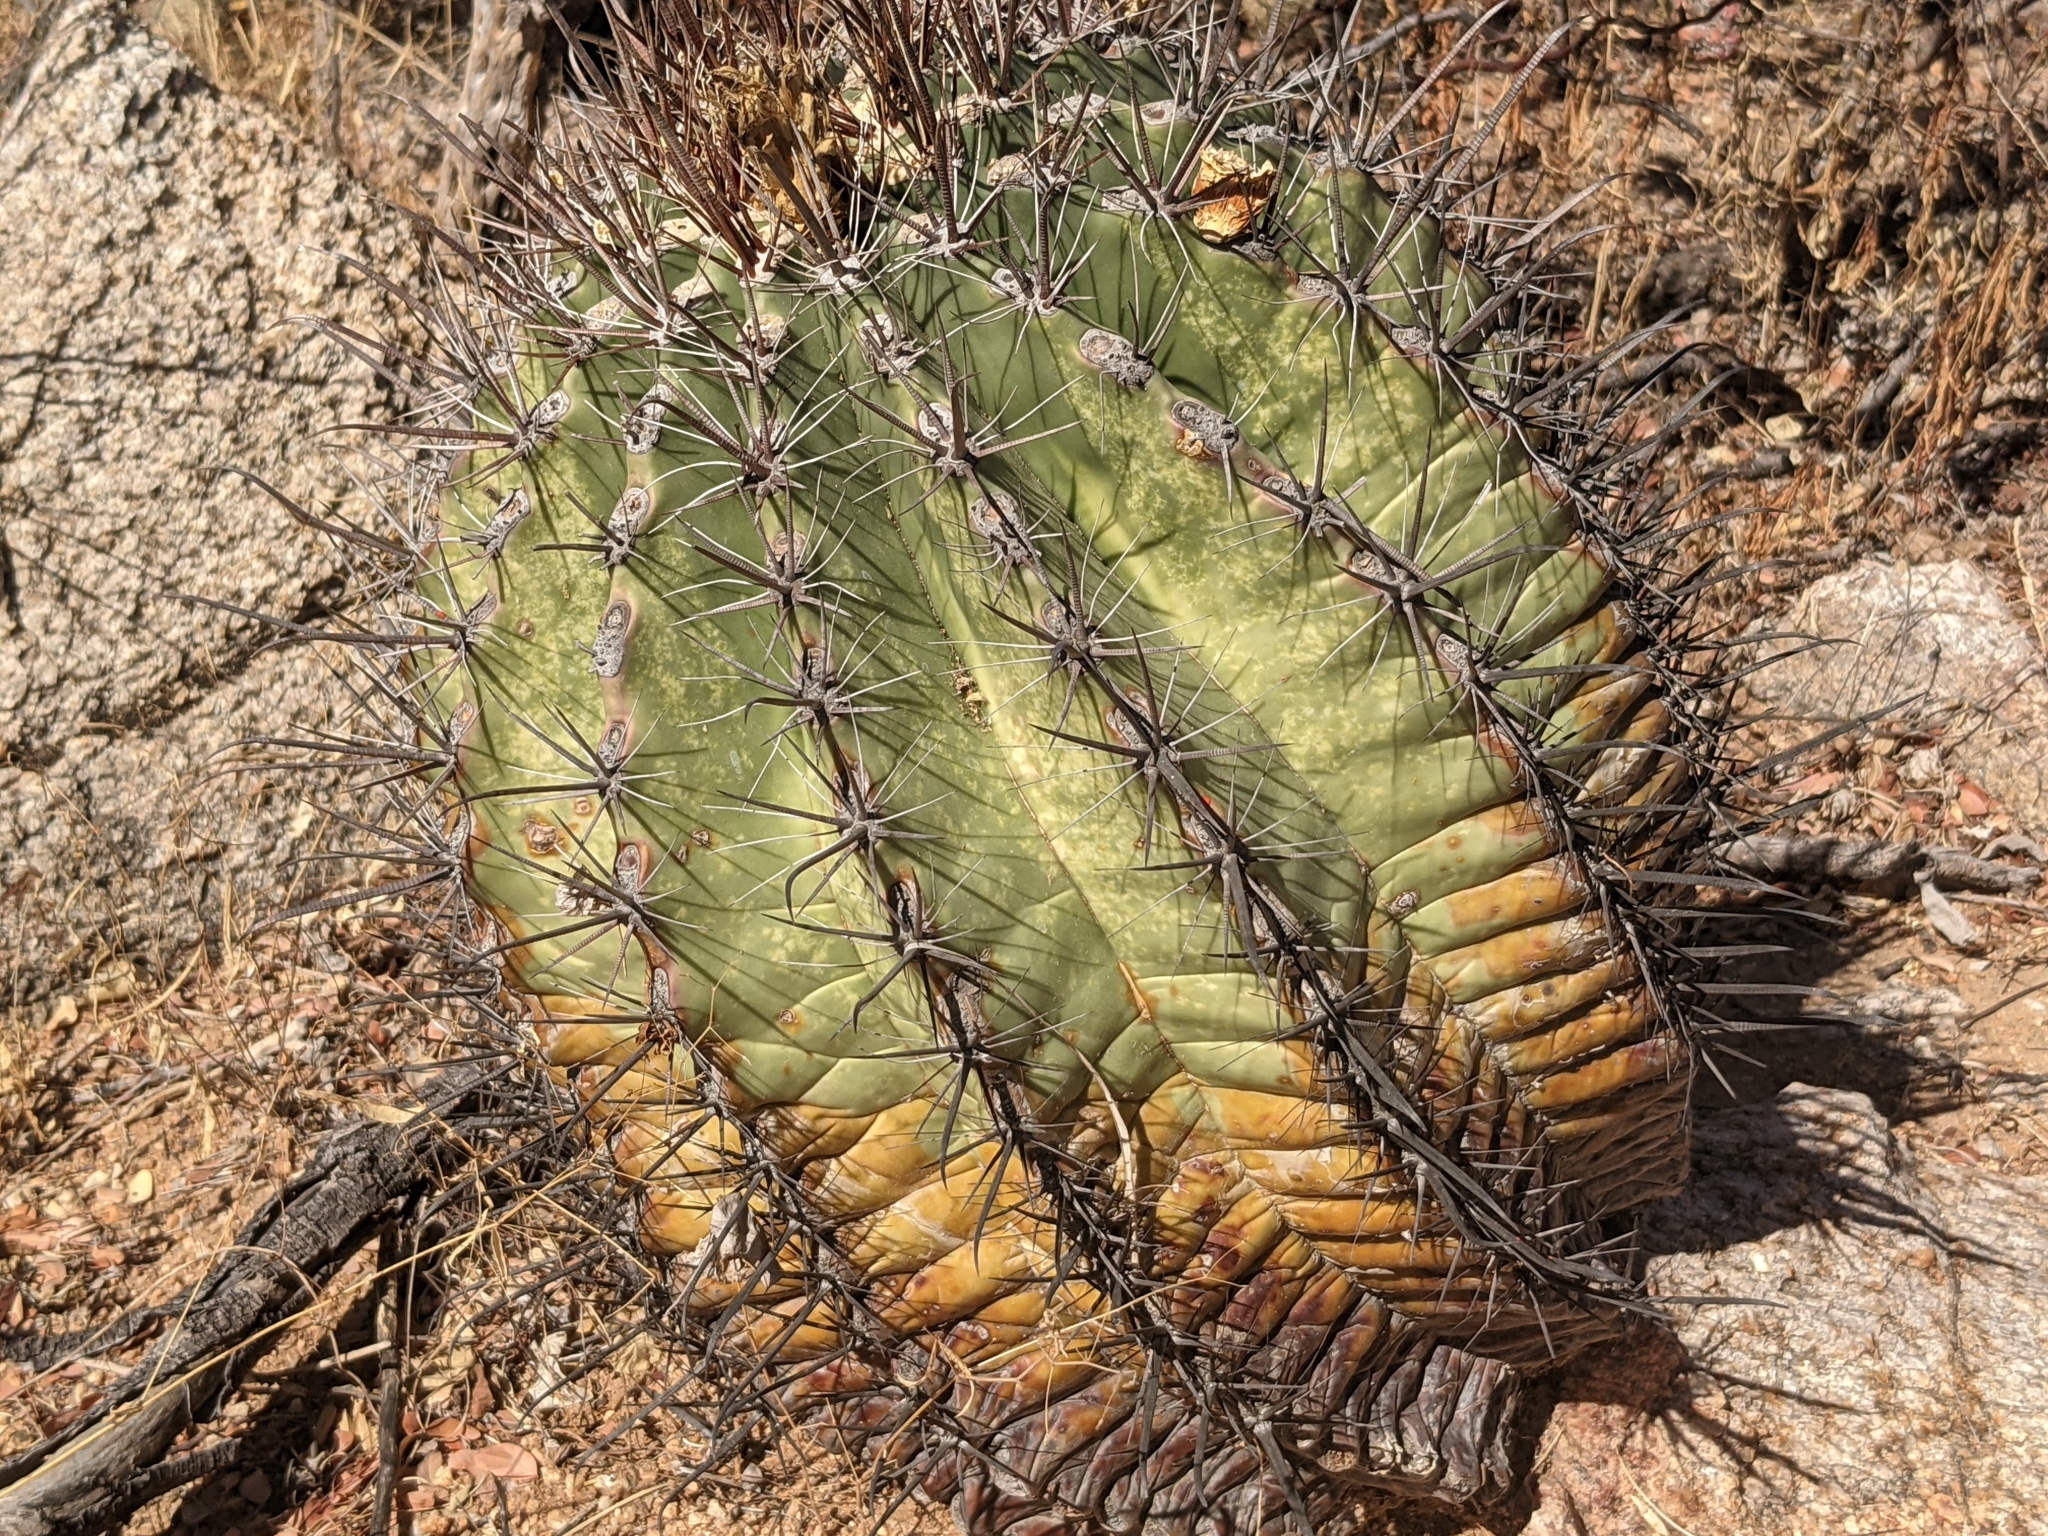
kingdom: Plantae
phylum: Tracheophyta
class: Magnoliopsida
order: Caryophyllales
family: Cactaceae
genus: Ferocactus
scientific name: Ferocactus townsendianus
